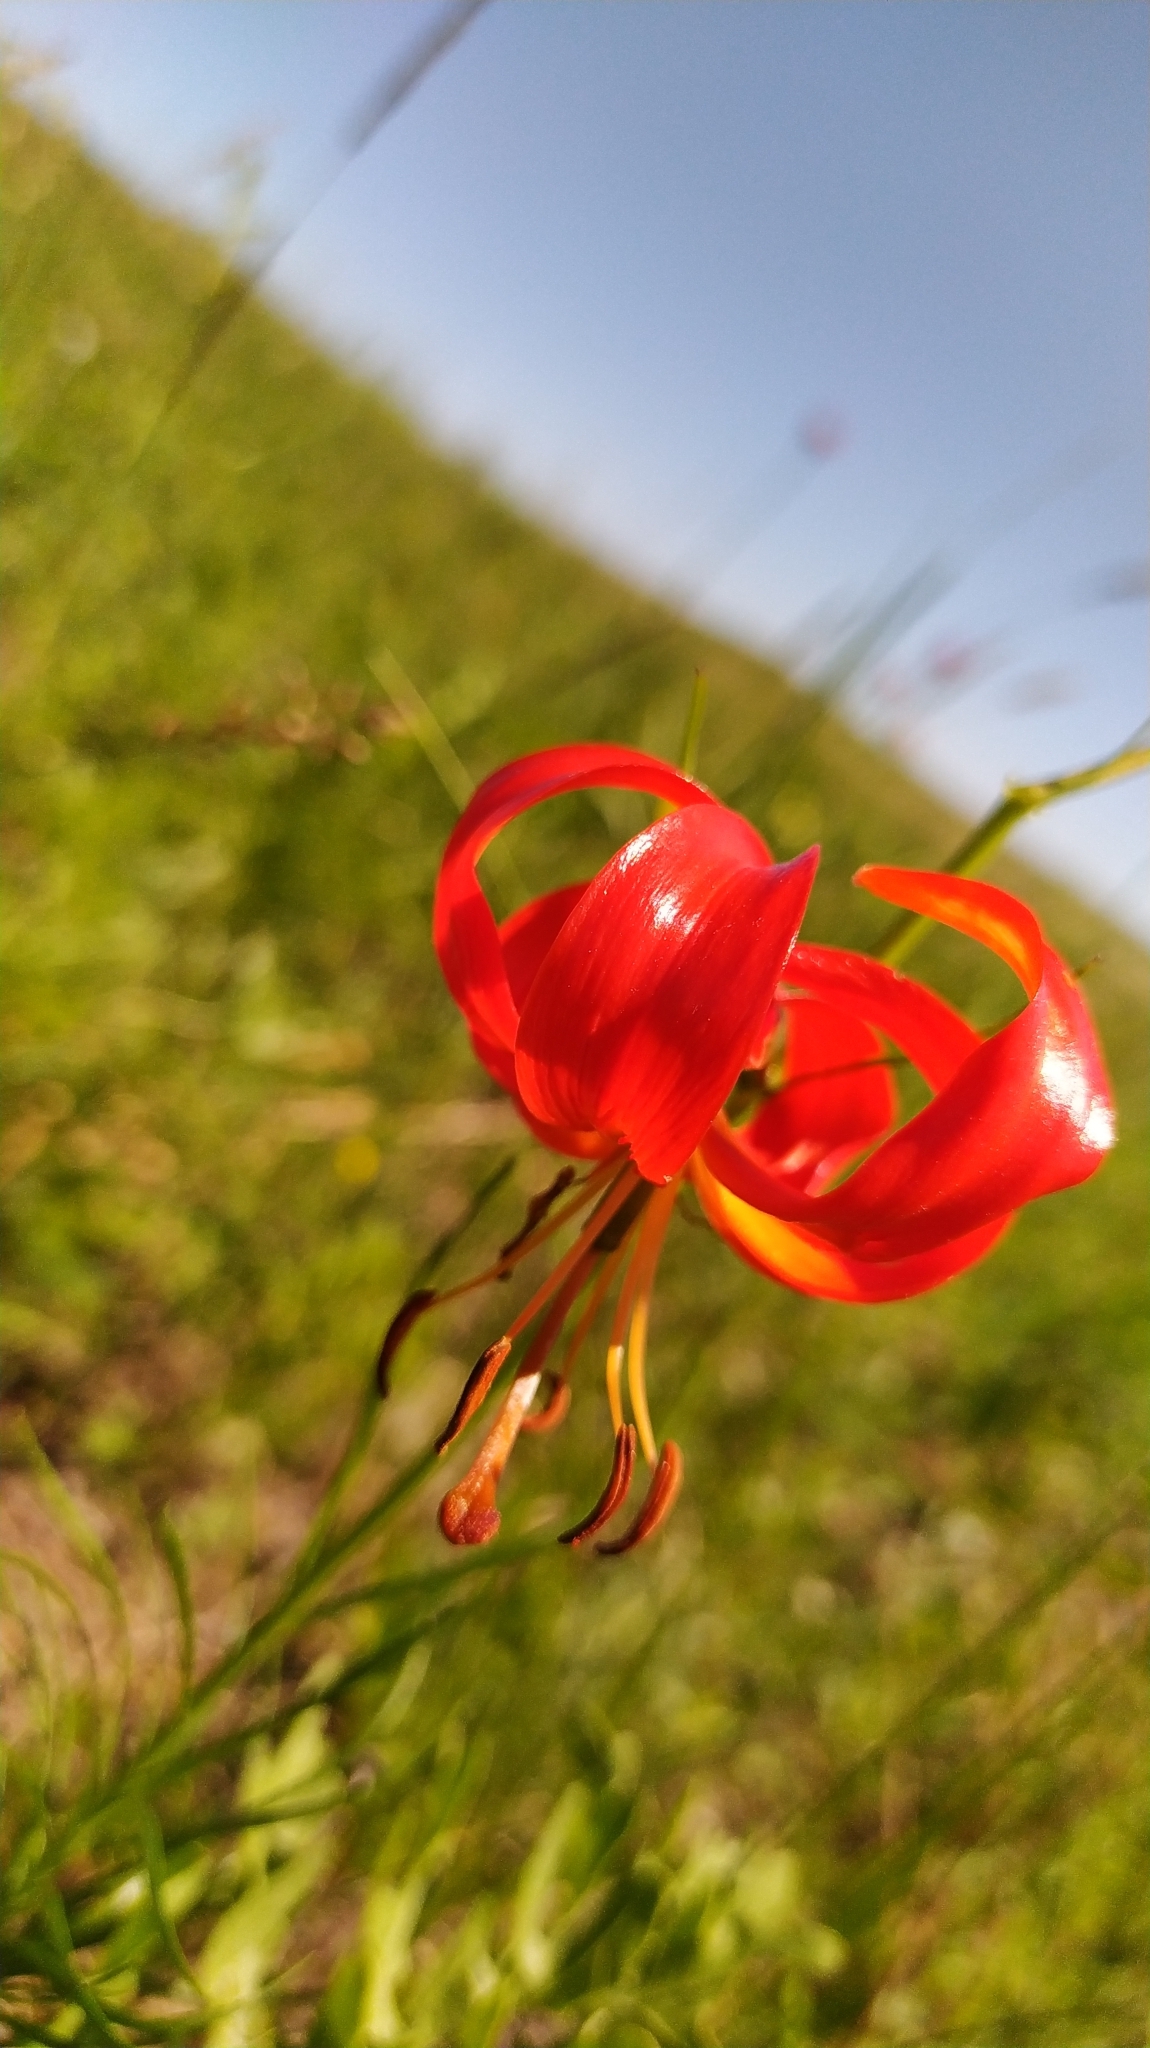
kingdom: Plantae
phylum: Tracheophyta
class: Liliopsida
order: Liliales
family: Liliaceae
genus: Lilium
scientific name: Lilium pumilum
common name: Coral lily
